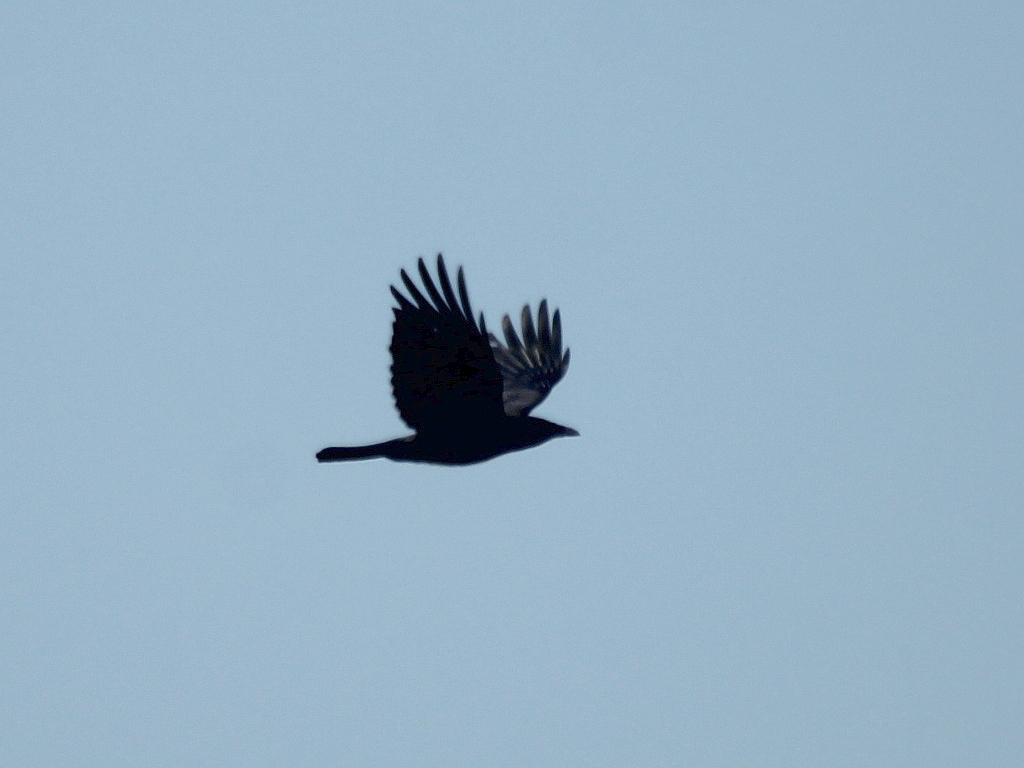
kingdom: Animalia
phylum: Chordata
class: Aves
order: Passeriformes
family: Corvidae
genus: Corvus
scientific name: Corvus corone
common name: Carrion crow
